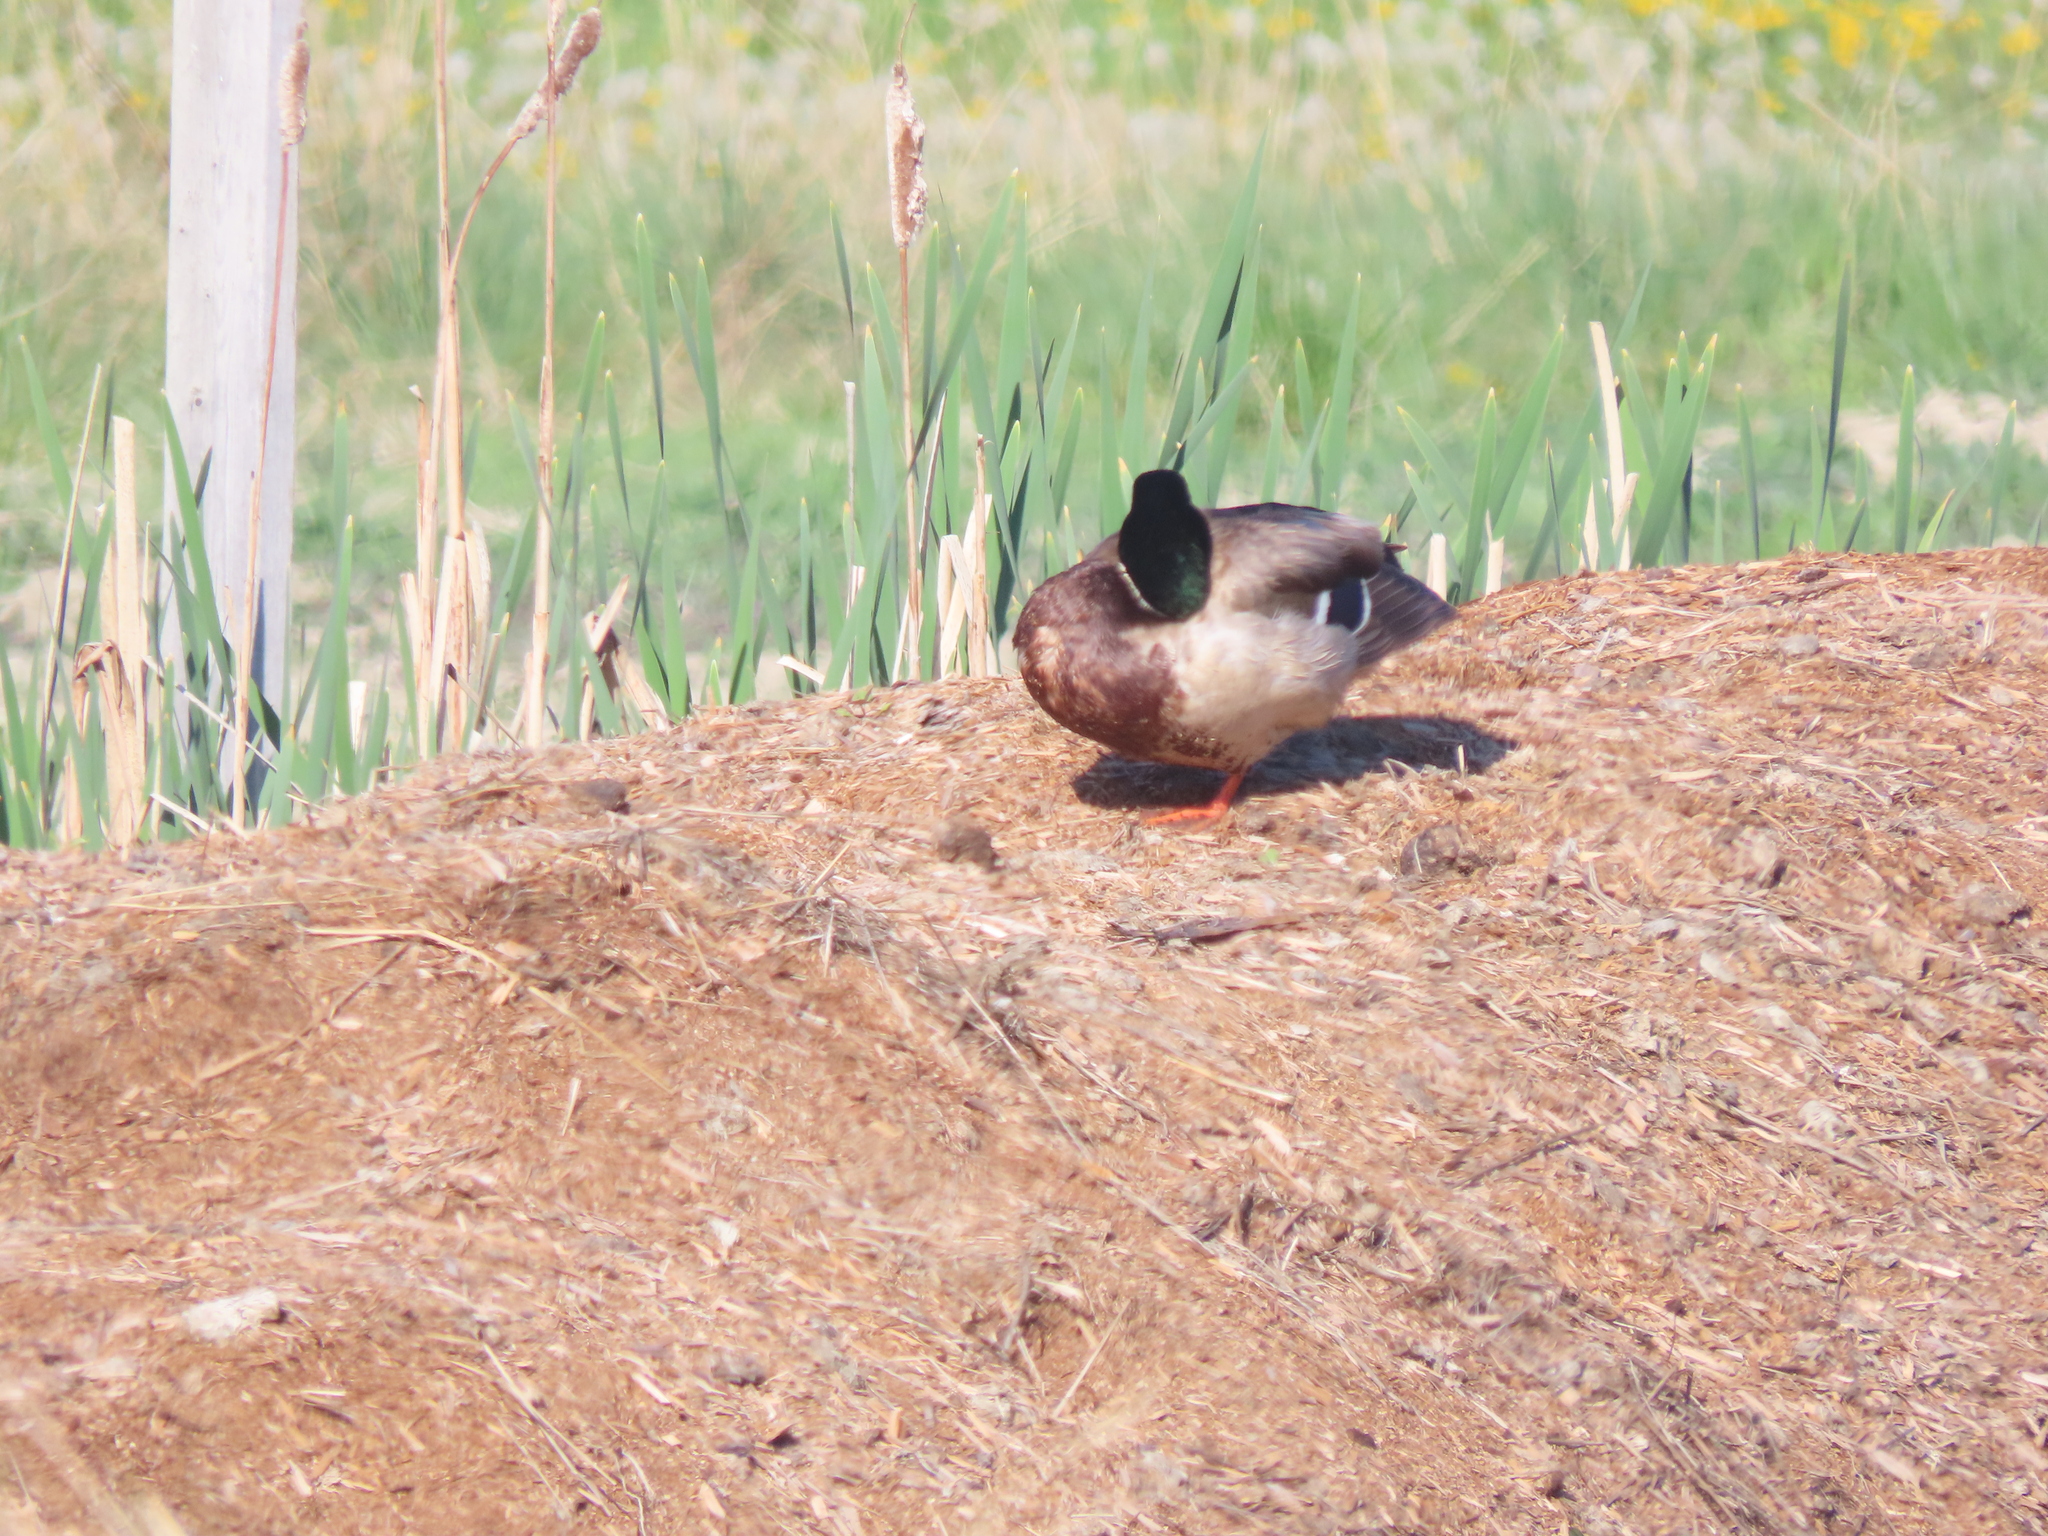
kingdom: Animalia
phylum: Chordata
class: Aves
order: Anseriformes
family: Anatidae
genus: Anas
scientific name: Anas platyrhynchos
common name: Mallard
